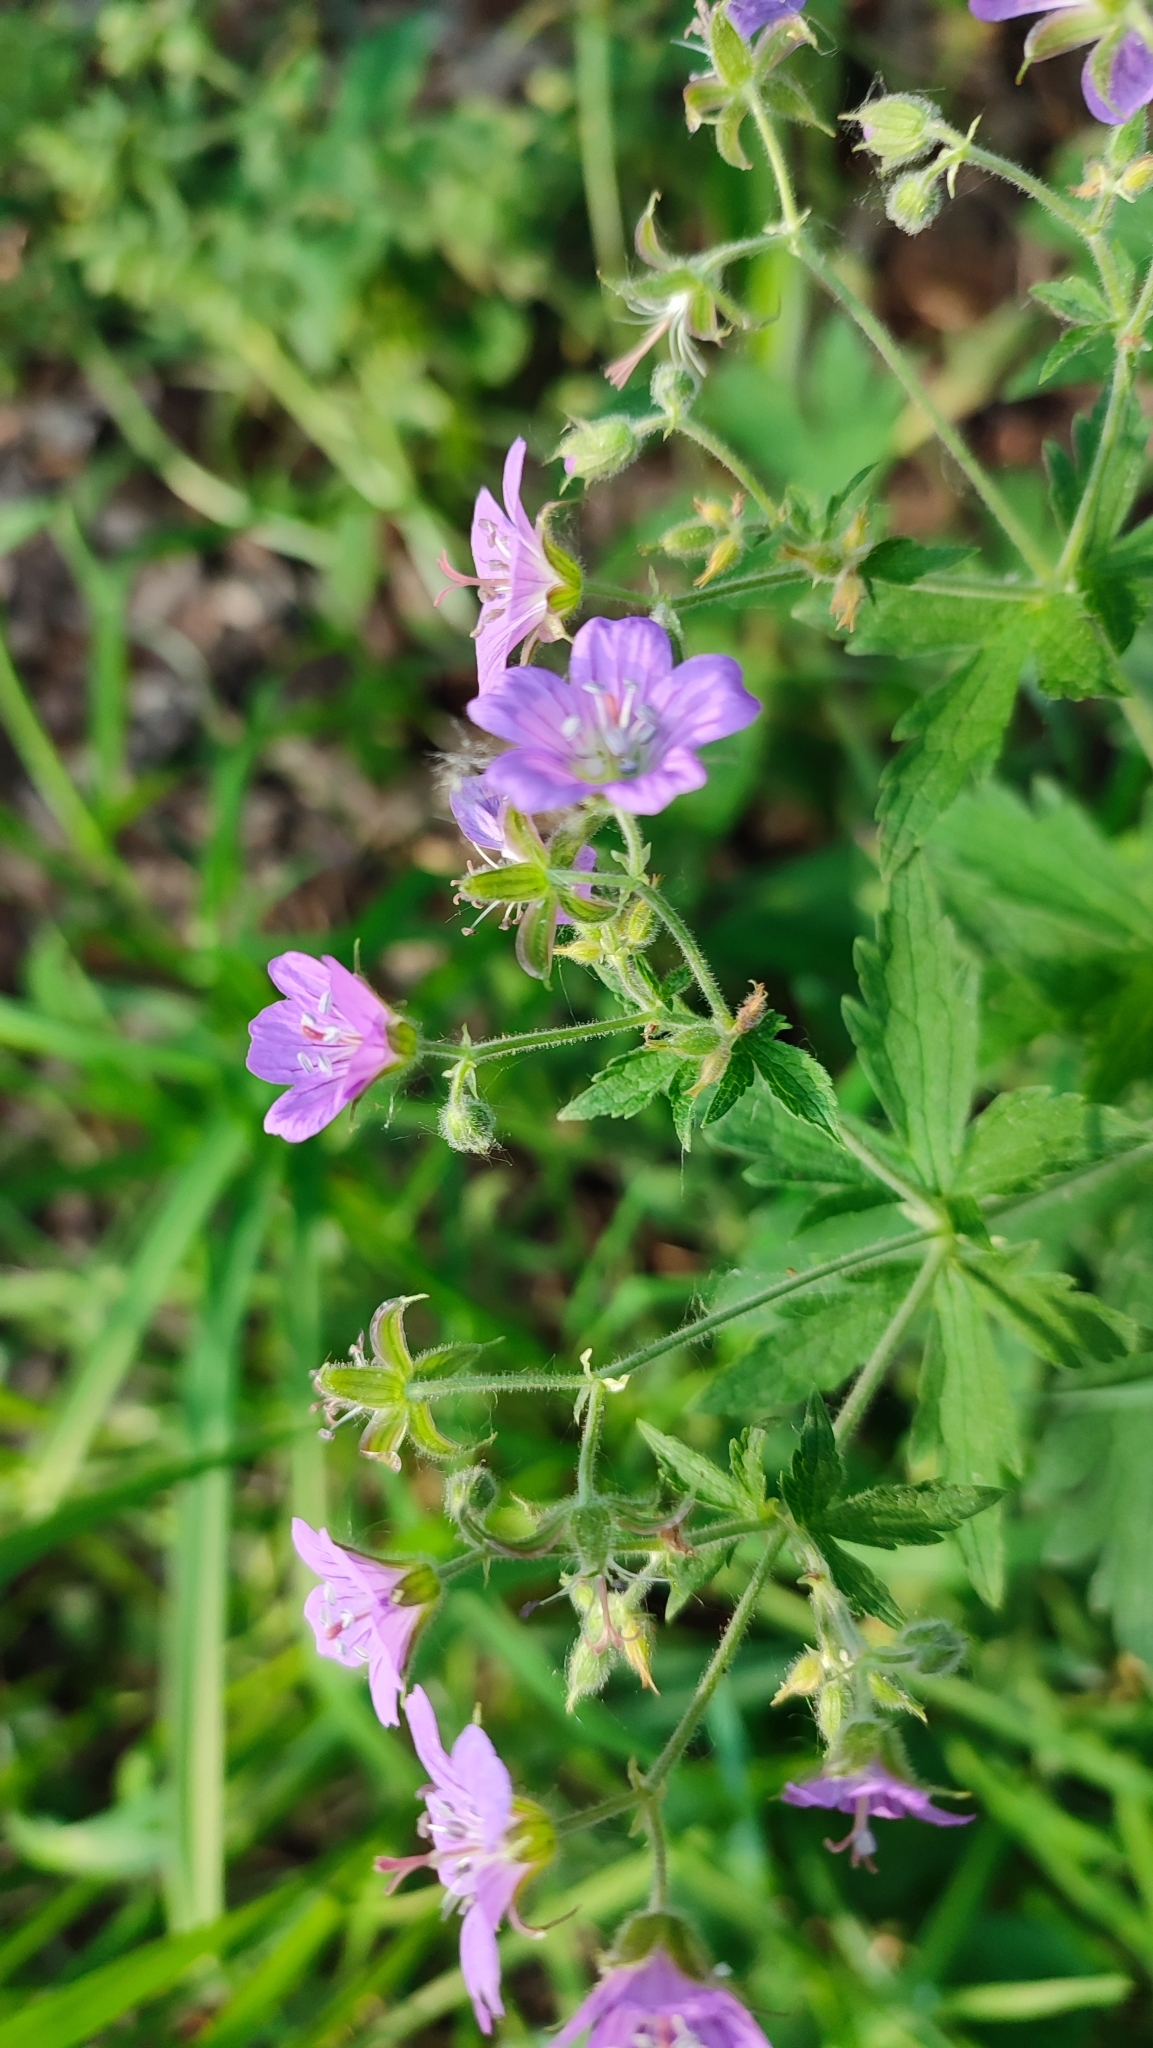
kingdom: Plantae
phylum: Tracheophyta
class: Magnoliopsida
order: Geraniales
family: Geraniaceae
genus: Geranium
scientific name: Geranium sylvaticum
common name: Wood crane's-bill
